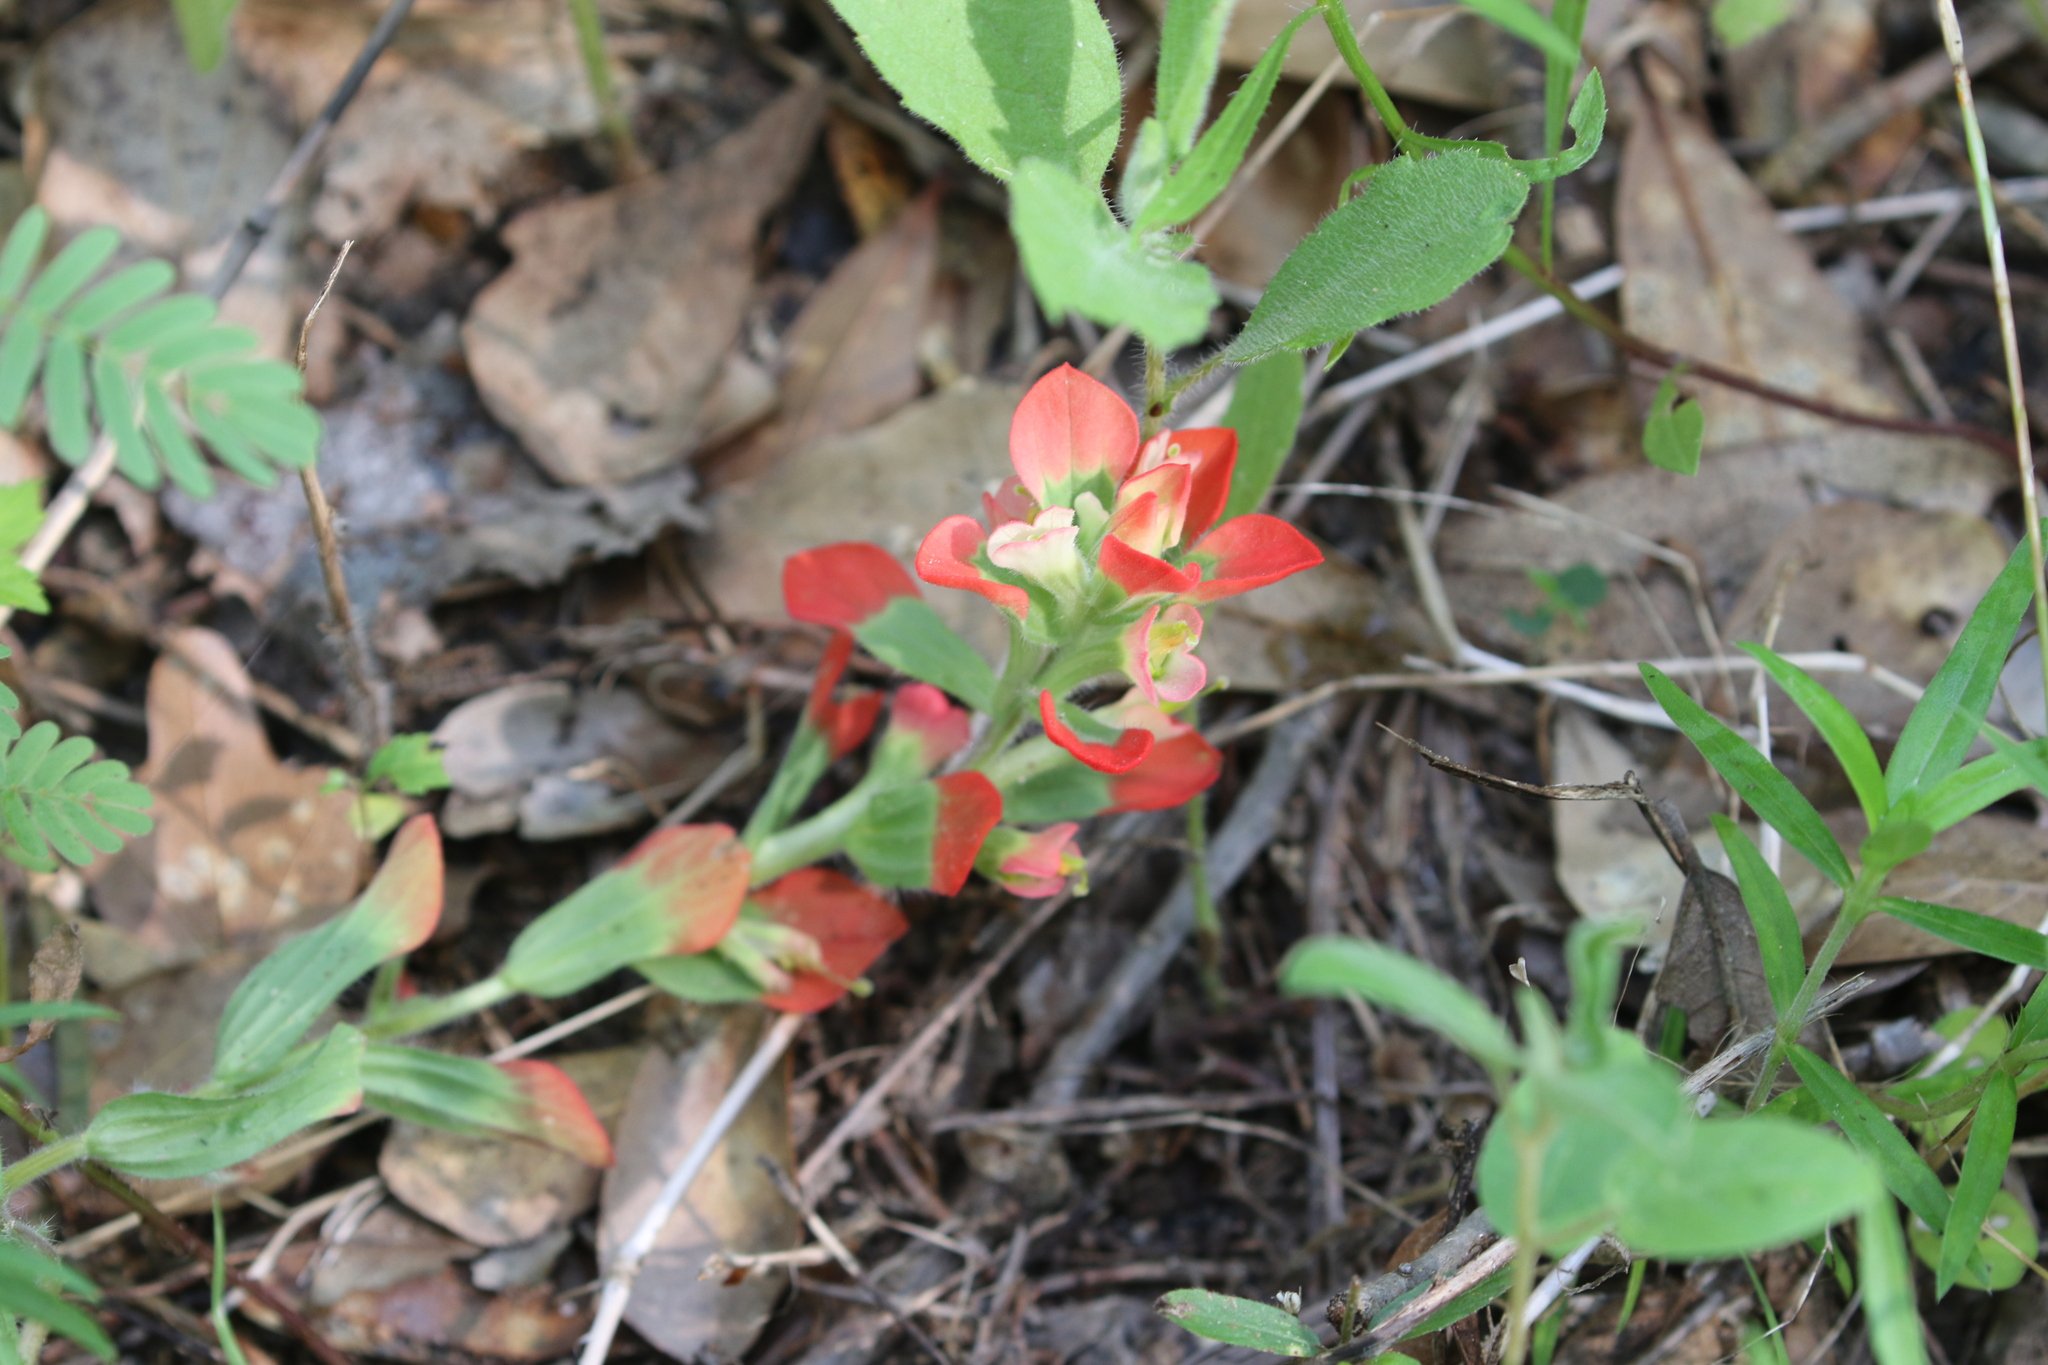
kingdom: Plantae
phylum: Tracheophyta
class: Magnoliopsida
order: Lamiales
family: Orobanchaceae
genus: Castilleja
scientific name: Castilleja indivisa
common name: Texas paintbrush
